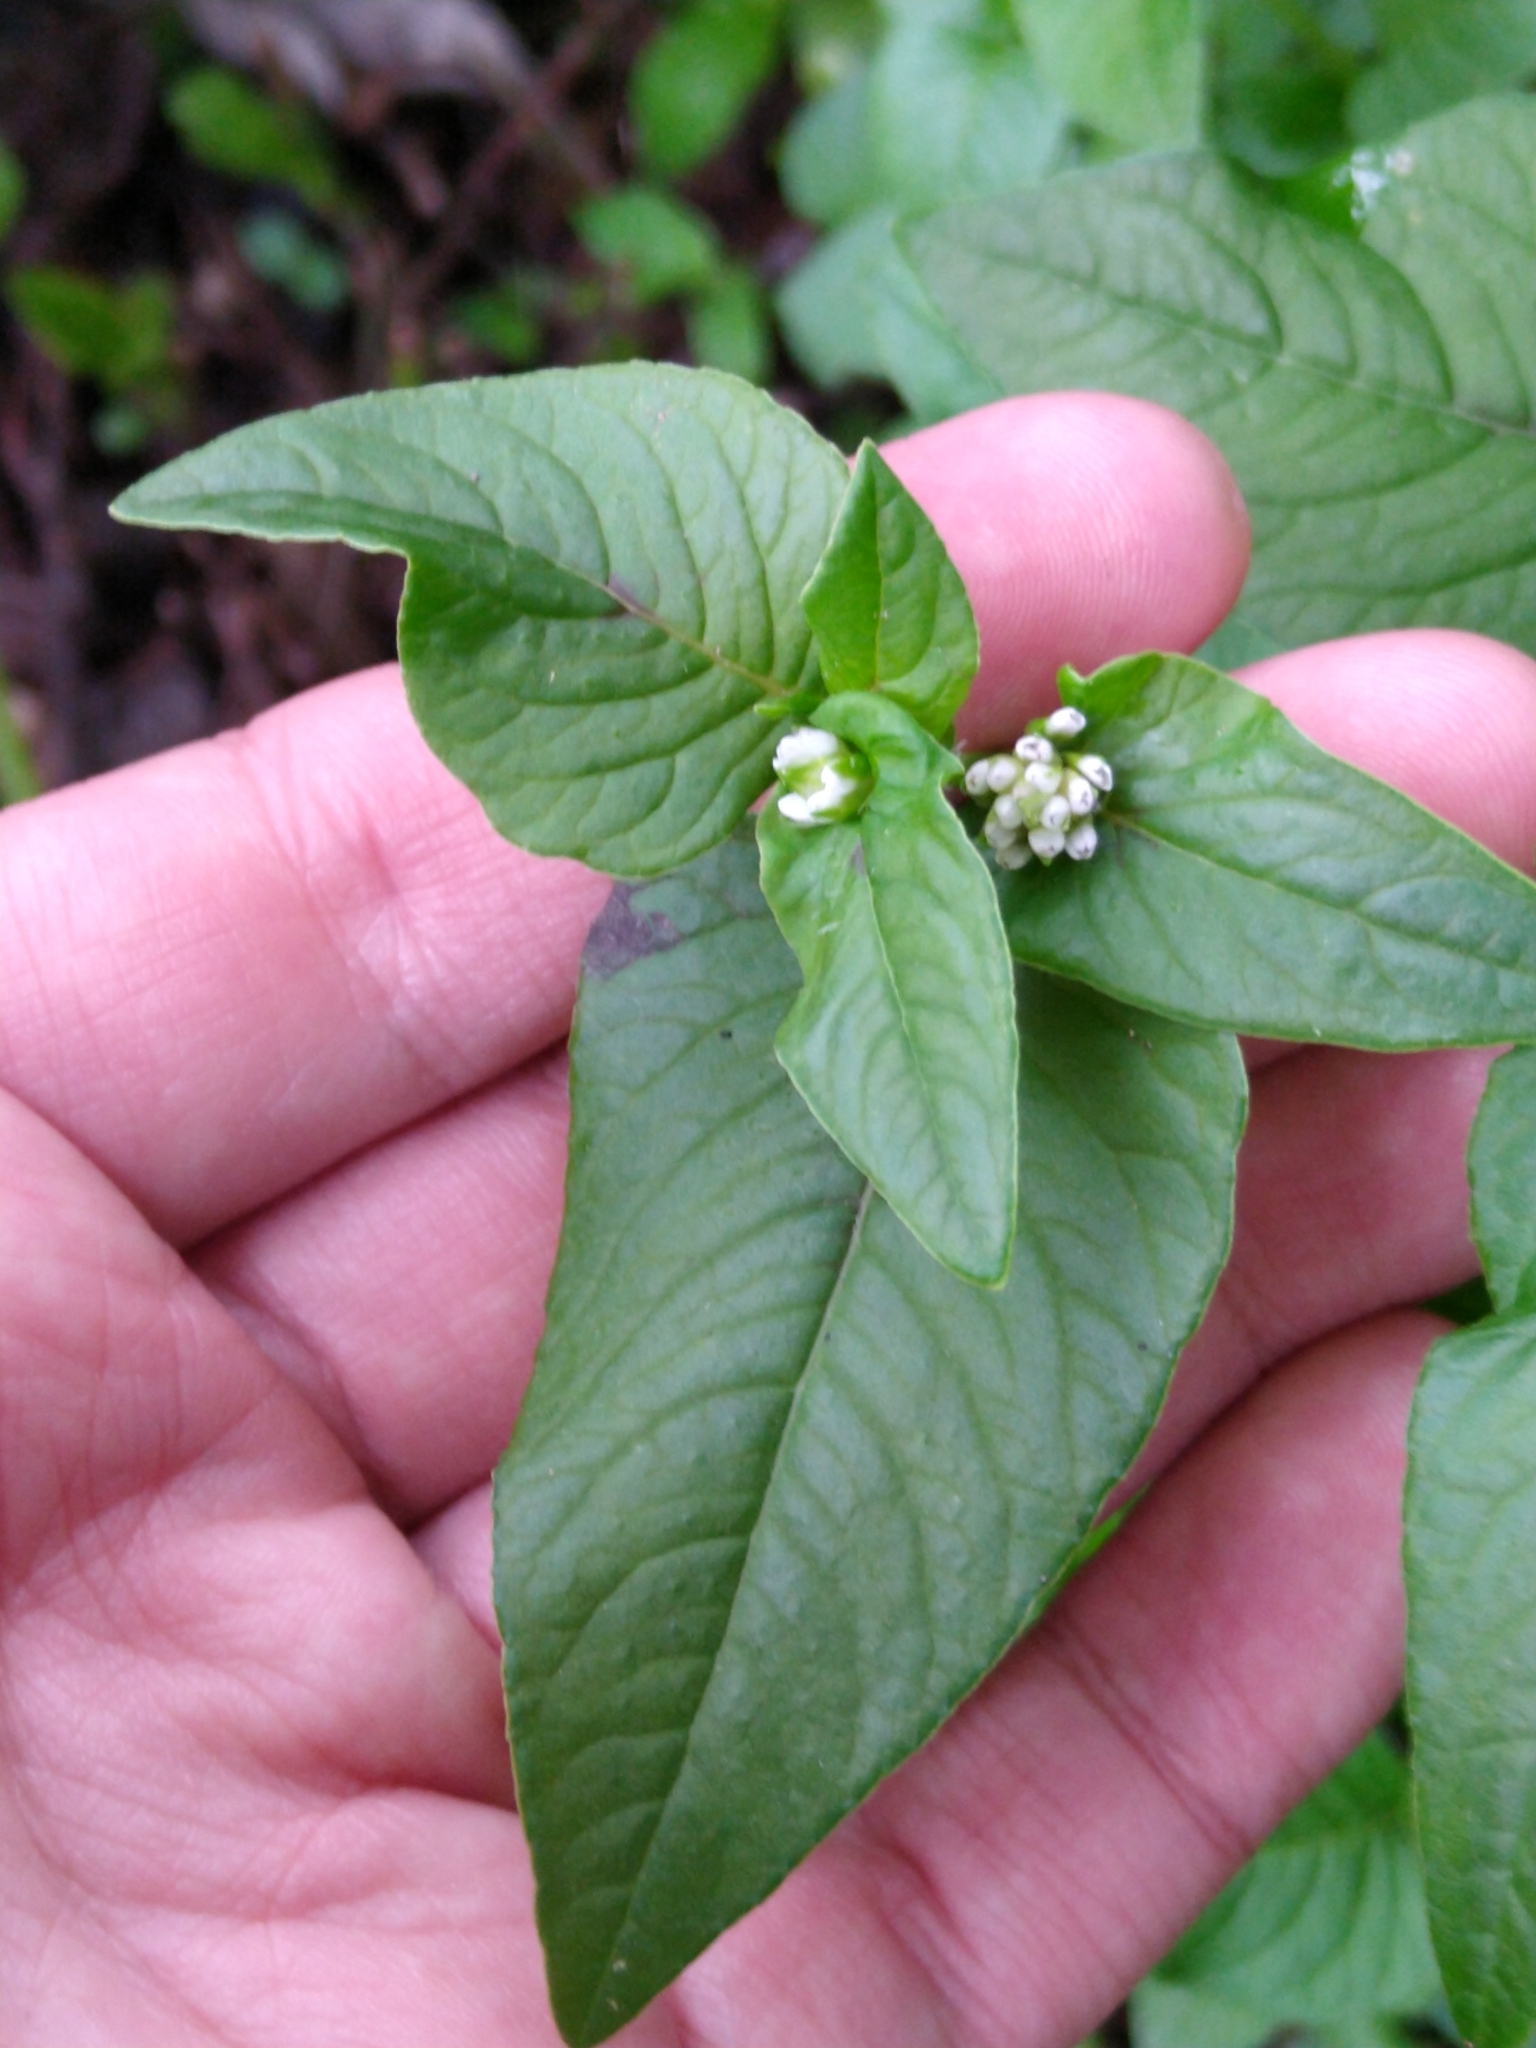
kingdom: Plantae
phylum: Tracheophyta
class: Magnoliopsida
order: Caryophyllales
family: Polygonaceae
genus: Persicaria
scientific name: Persicaria nepalensis
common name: Nepal persicaria
